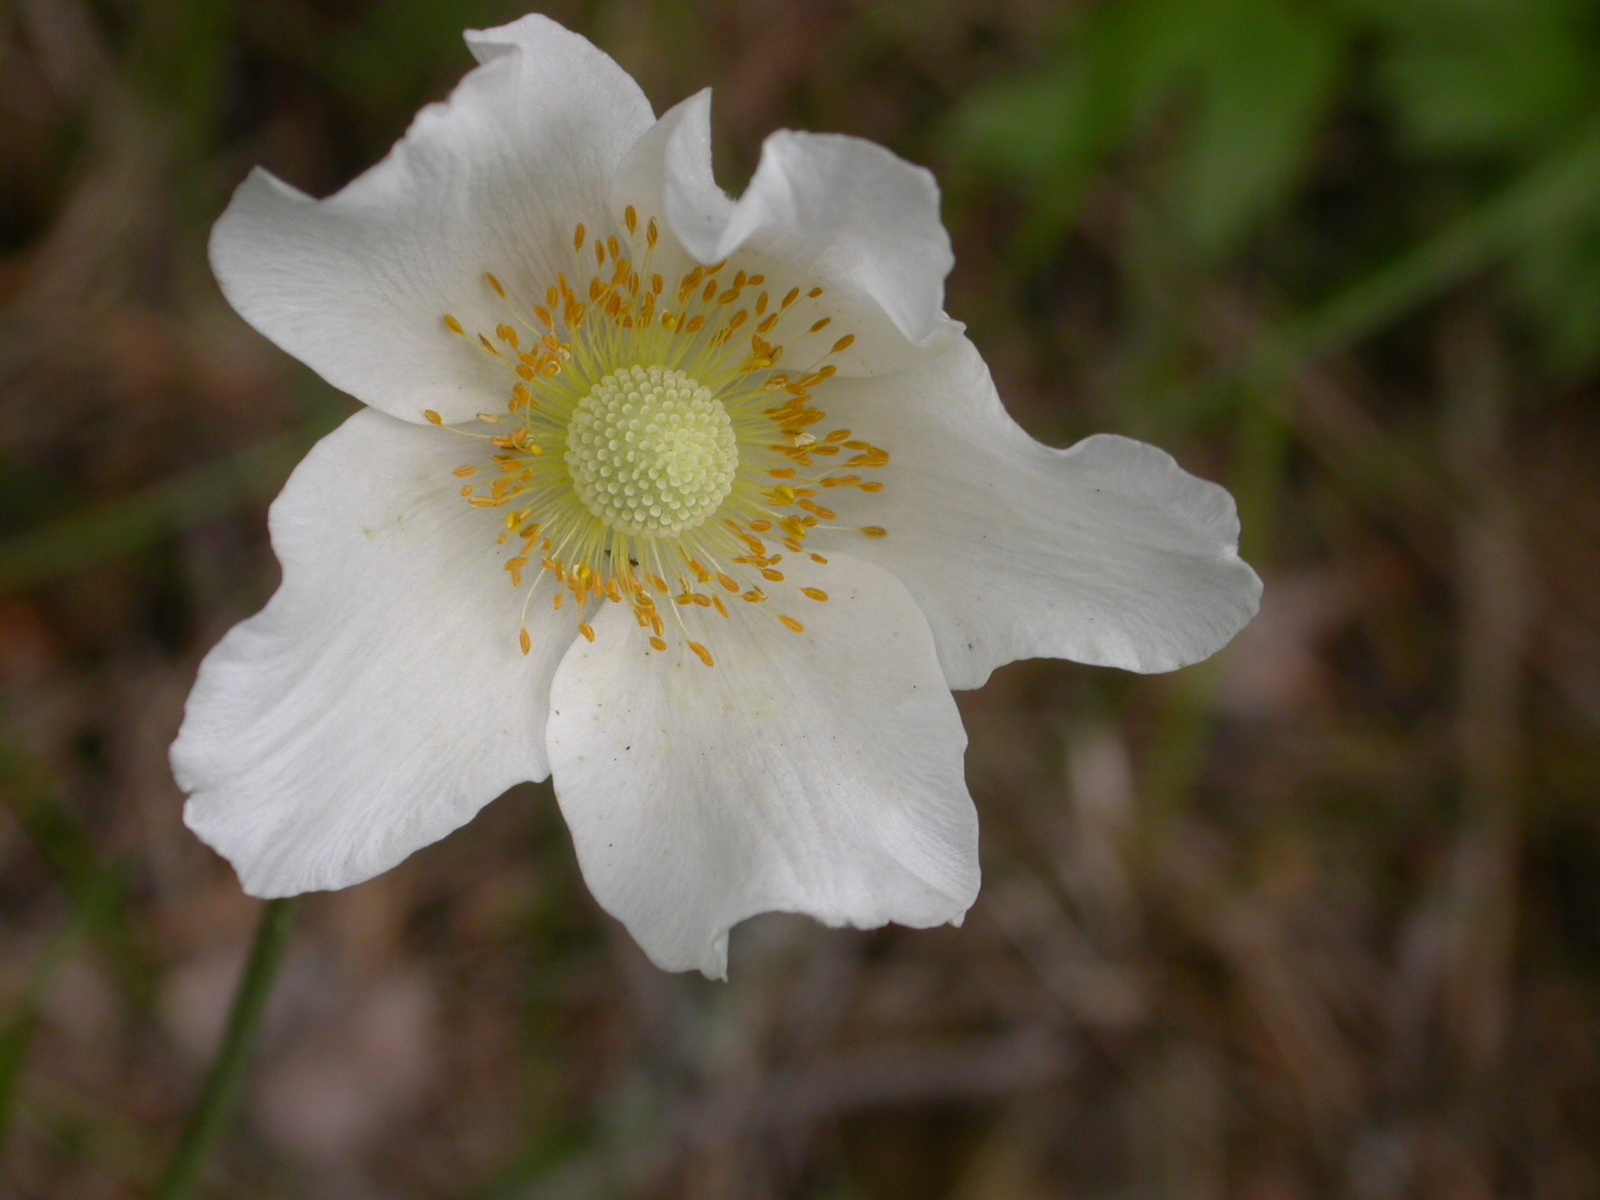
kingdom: Plantae
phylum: Tracheophyta
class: Magnoliopsida
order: Ranunculales
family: Ranunculaceae
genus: Anemone
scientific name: Anemone sylvestris
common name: Snowdrop anemone
